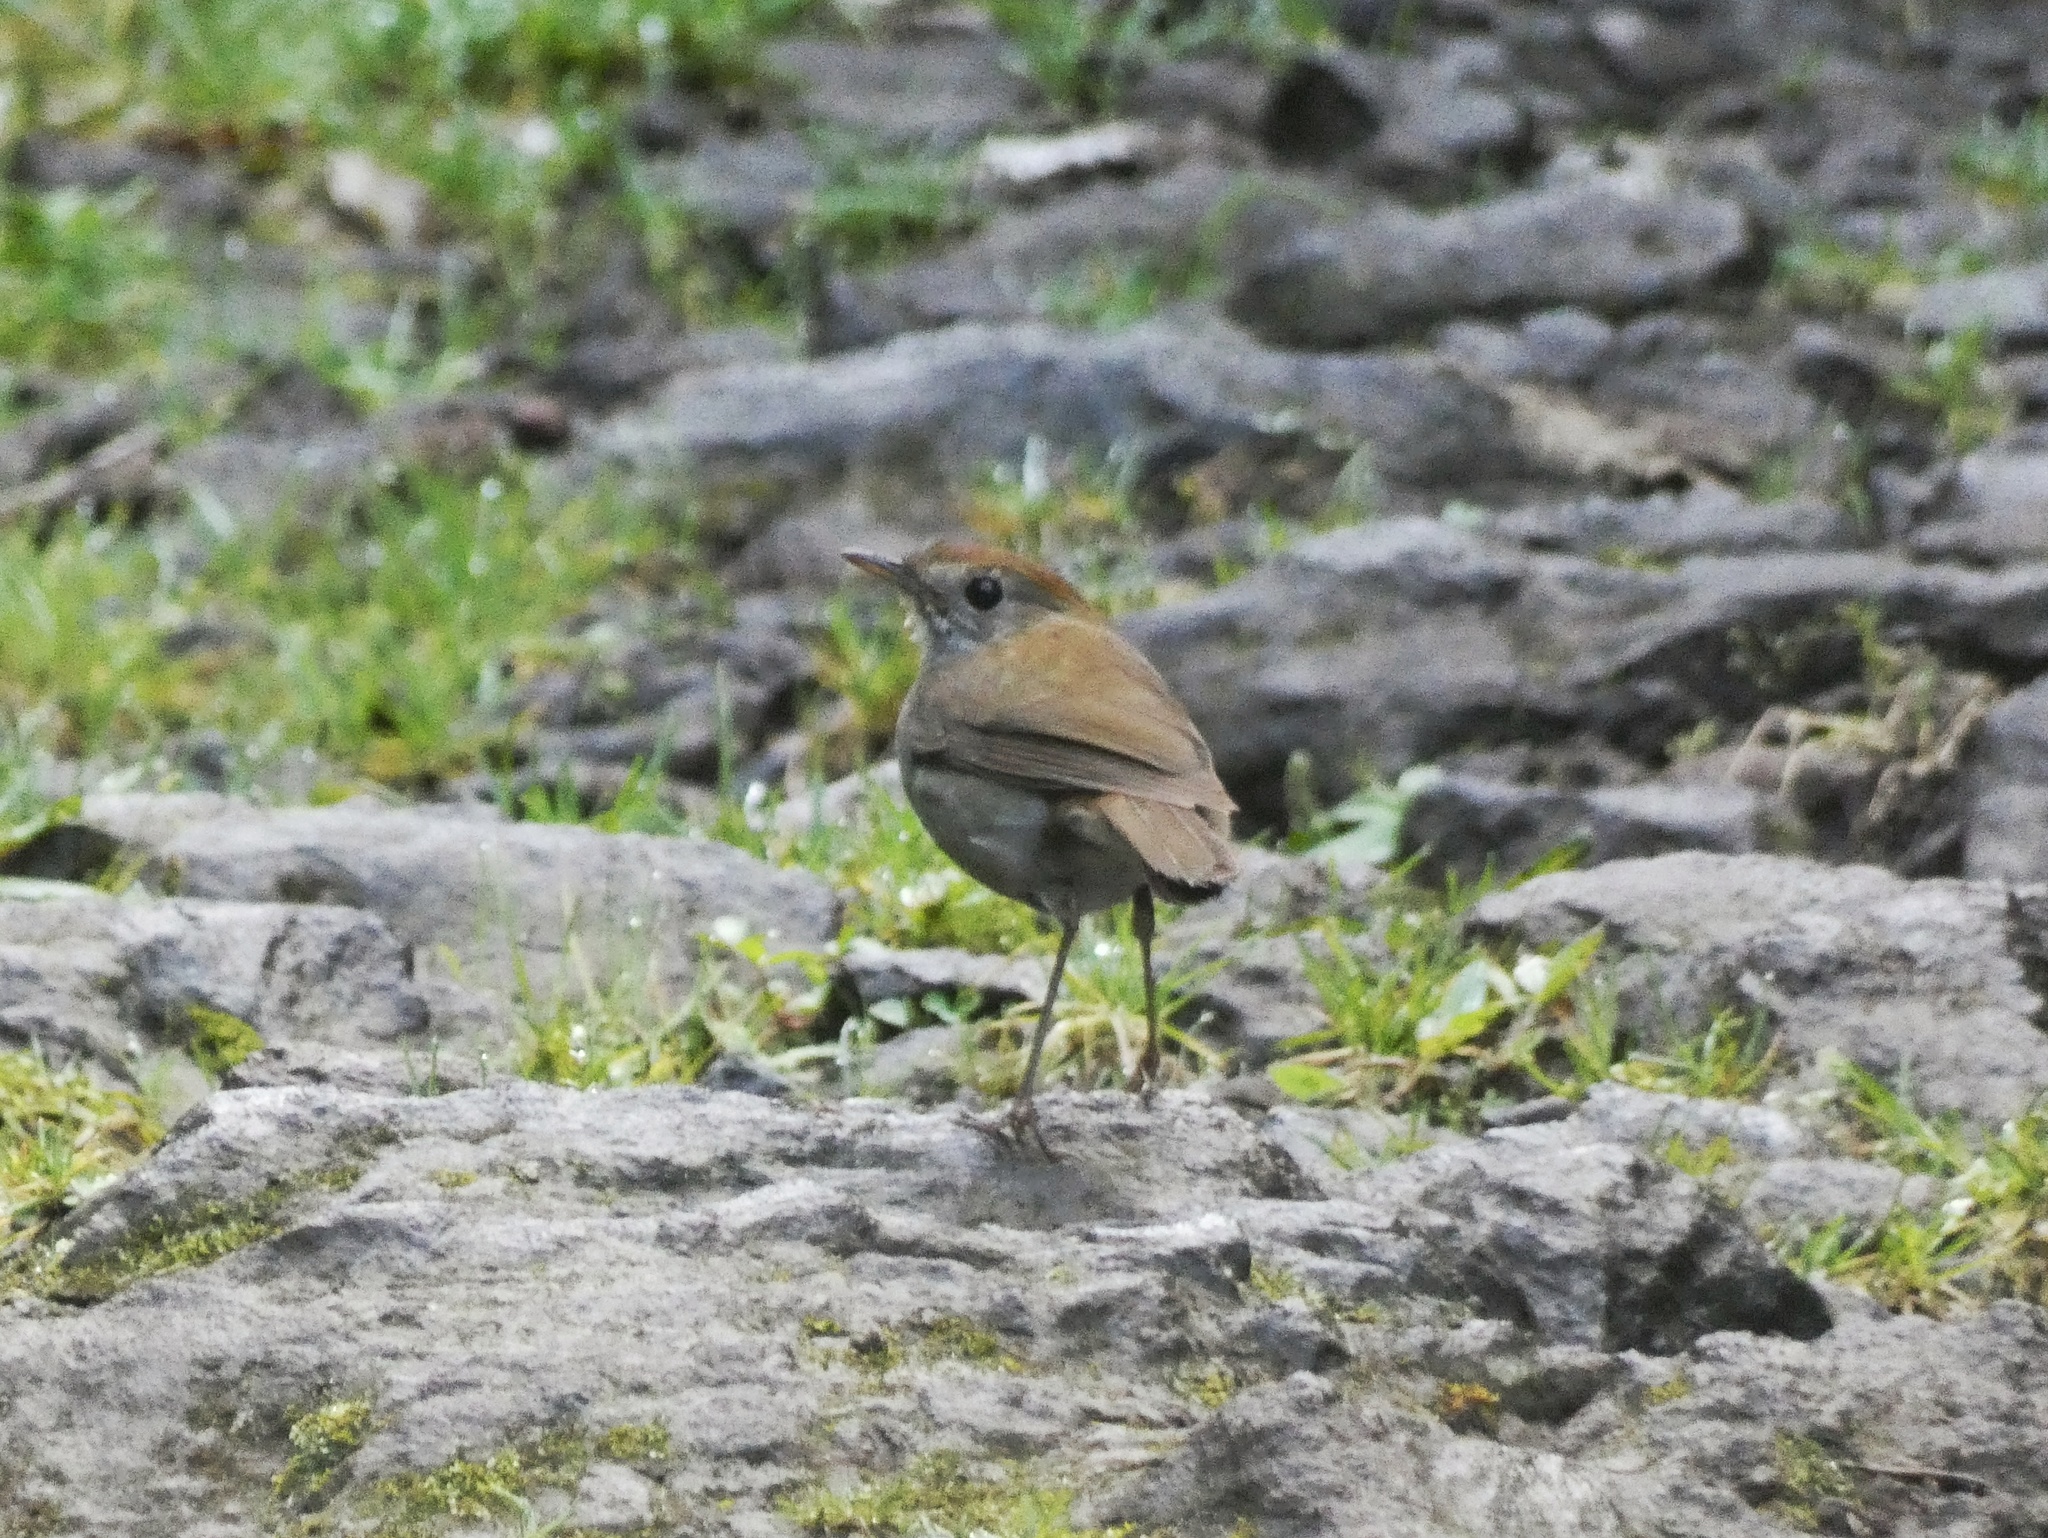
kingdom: Animalia
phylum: Chordata
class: Aves
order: Passeriformes
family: Turdidae
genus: Catharus
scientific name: Catharus frantzii
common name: Ruddy-capped nightingale-thrush
